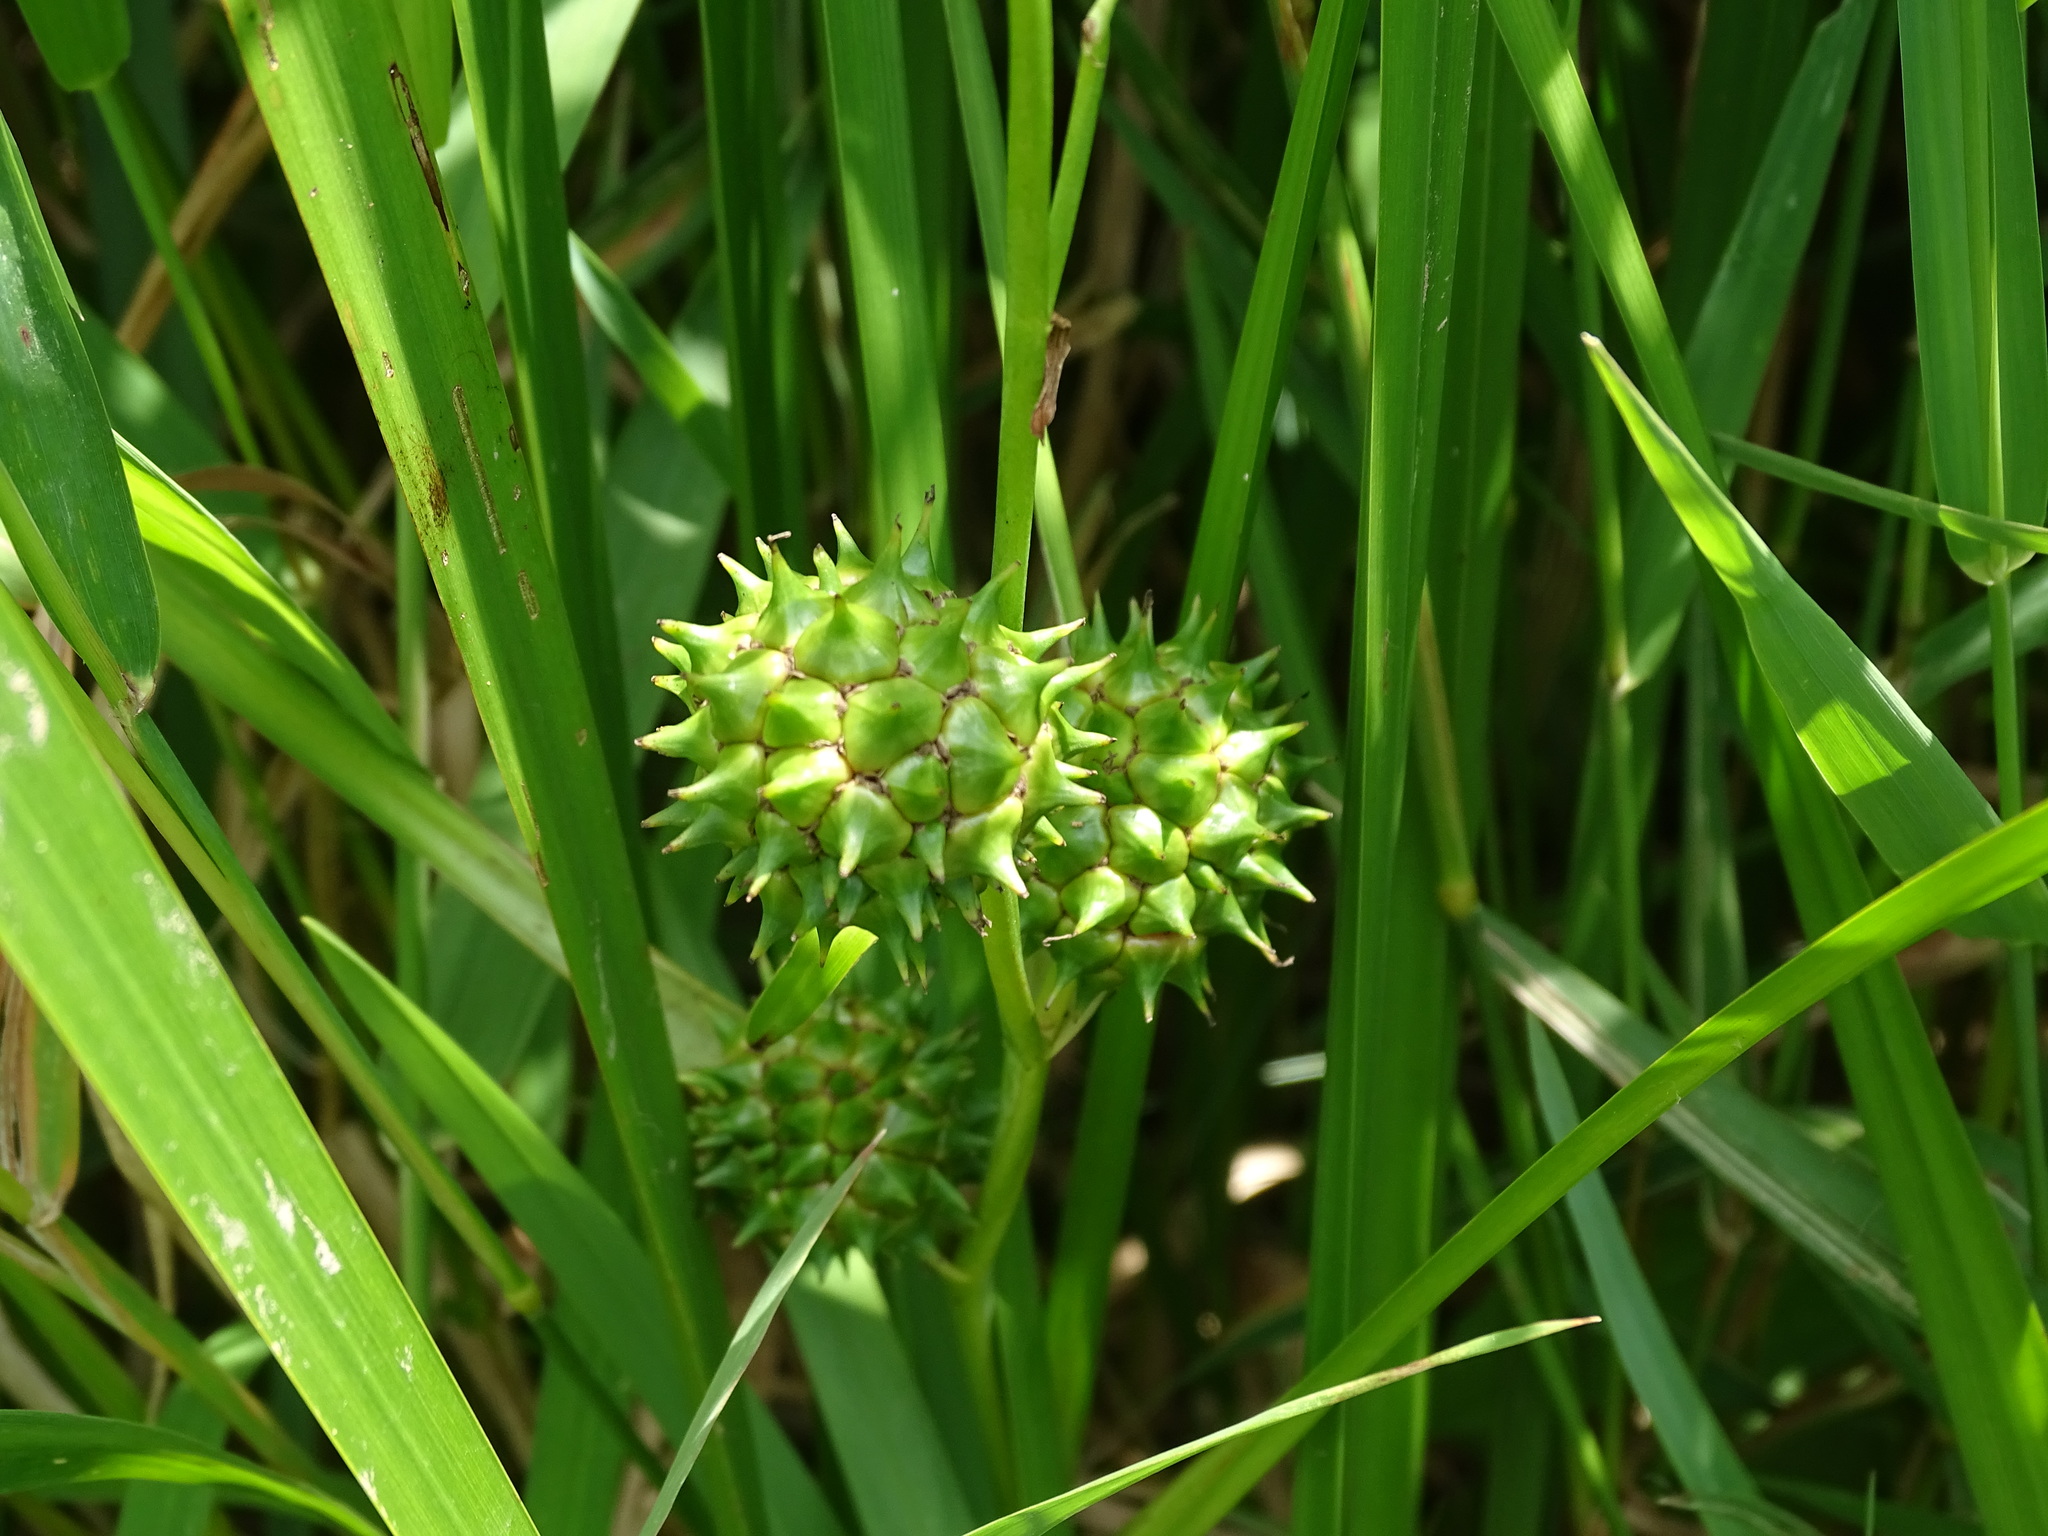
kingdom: Plantae
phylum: Tracheophyta
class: Liliopsida
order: Poales
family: Typhaceae
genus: Sparganium
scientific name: Sparganium eurycarpum
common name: Broad-fruited burreed
